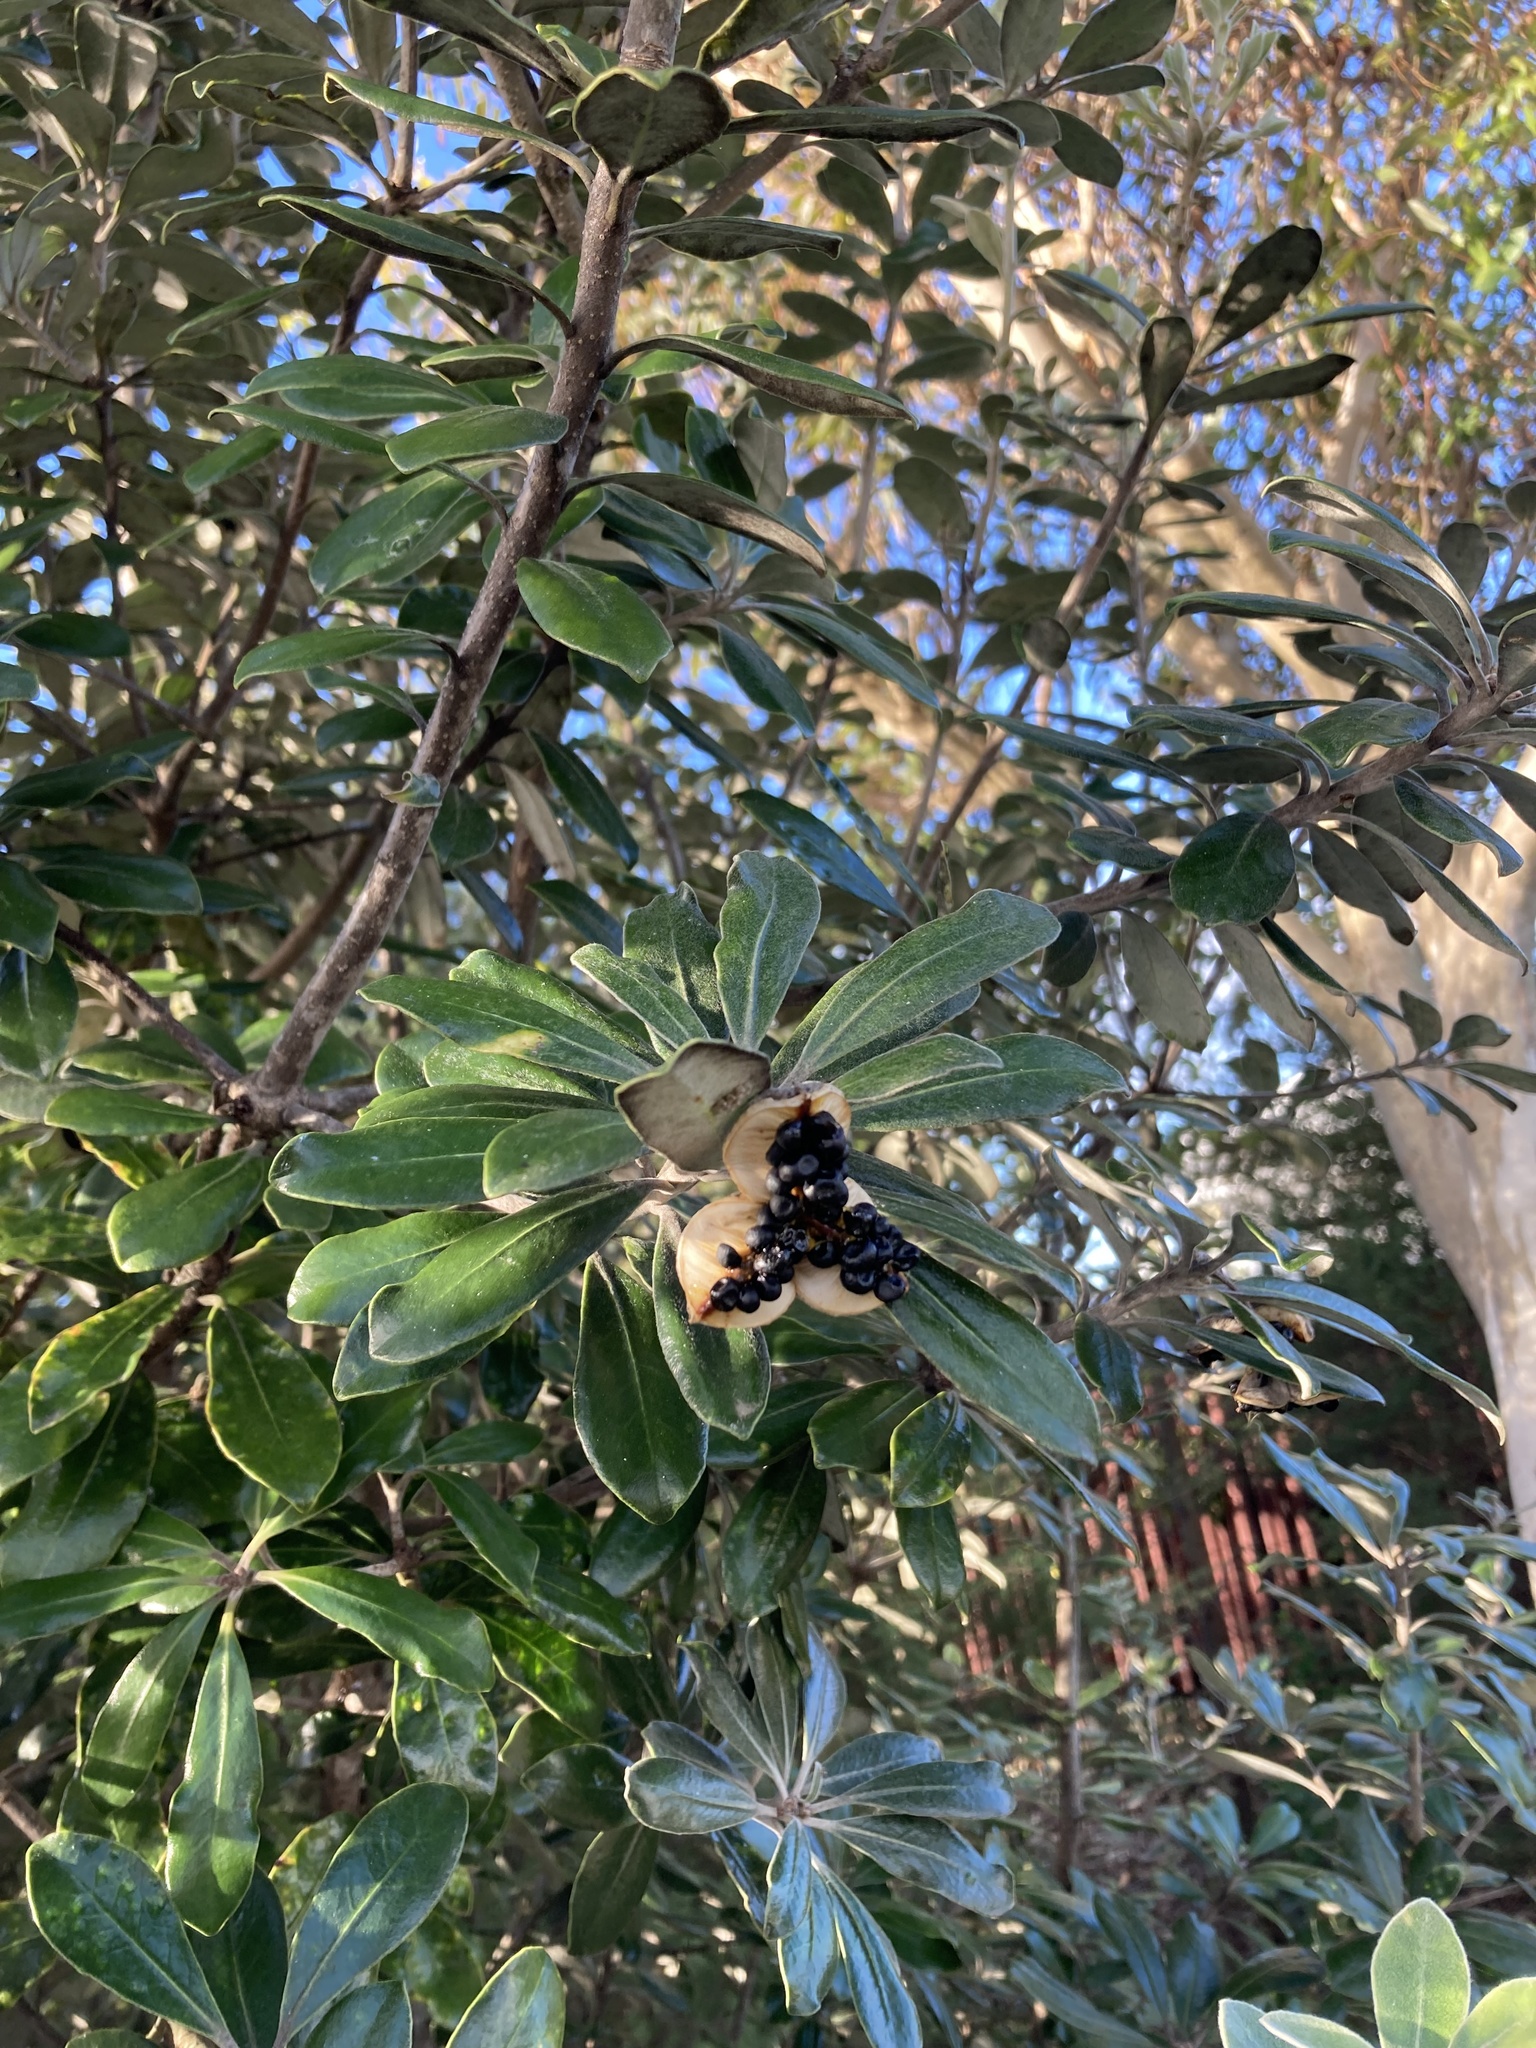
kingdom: Plantae
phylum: Tracheophyta
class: Magnoliopsida
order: Apiales
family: Pittosporaceae
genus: Pittosporum
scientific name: Pittosporum crassifolium
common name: Karo
